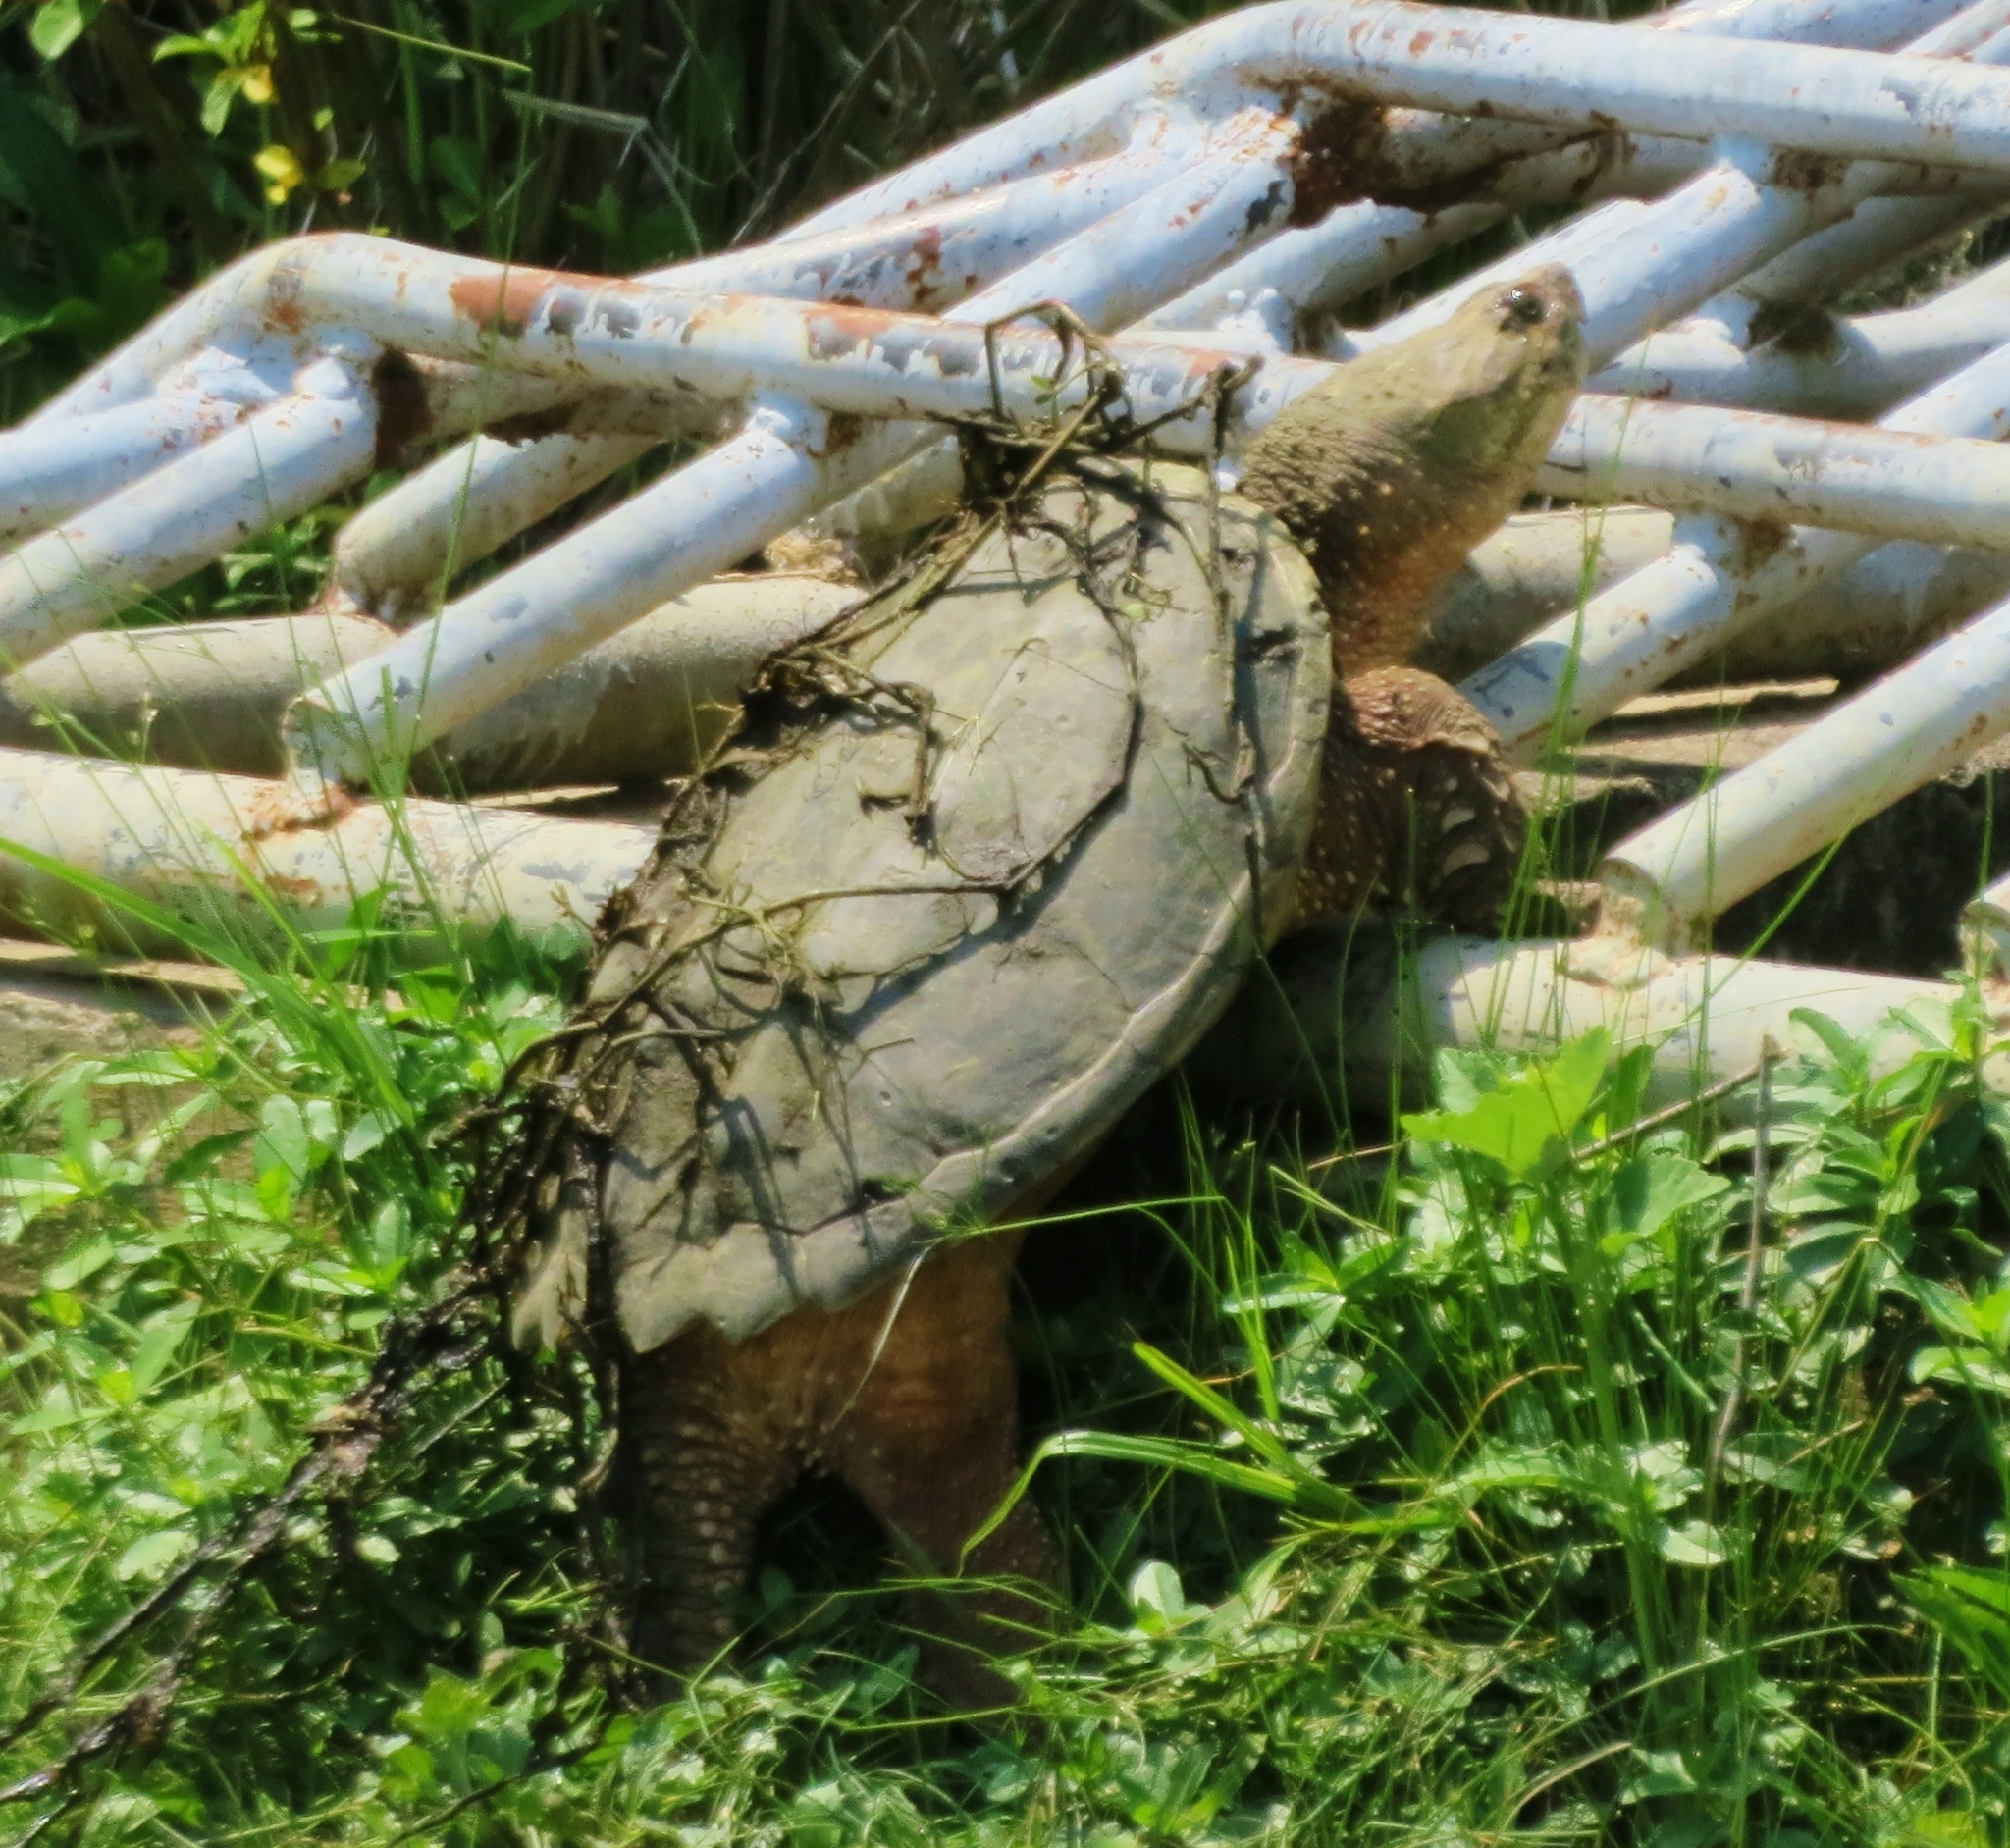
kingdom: Animalia
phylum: Chordata
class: Testudines
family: Chelydridae
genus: Chelydra
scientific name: Chelydra serpentina
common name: Common snapping turtle
